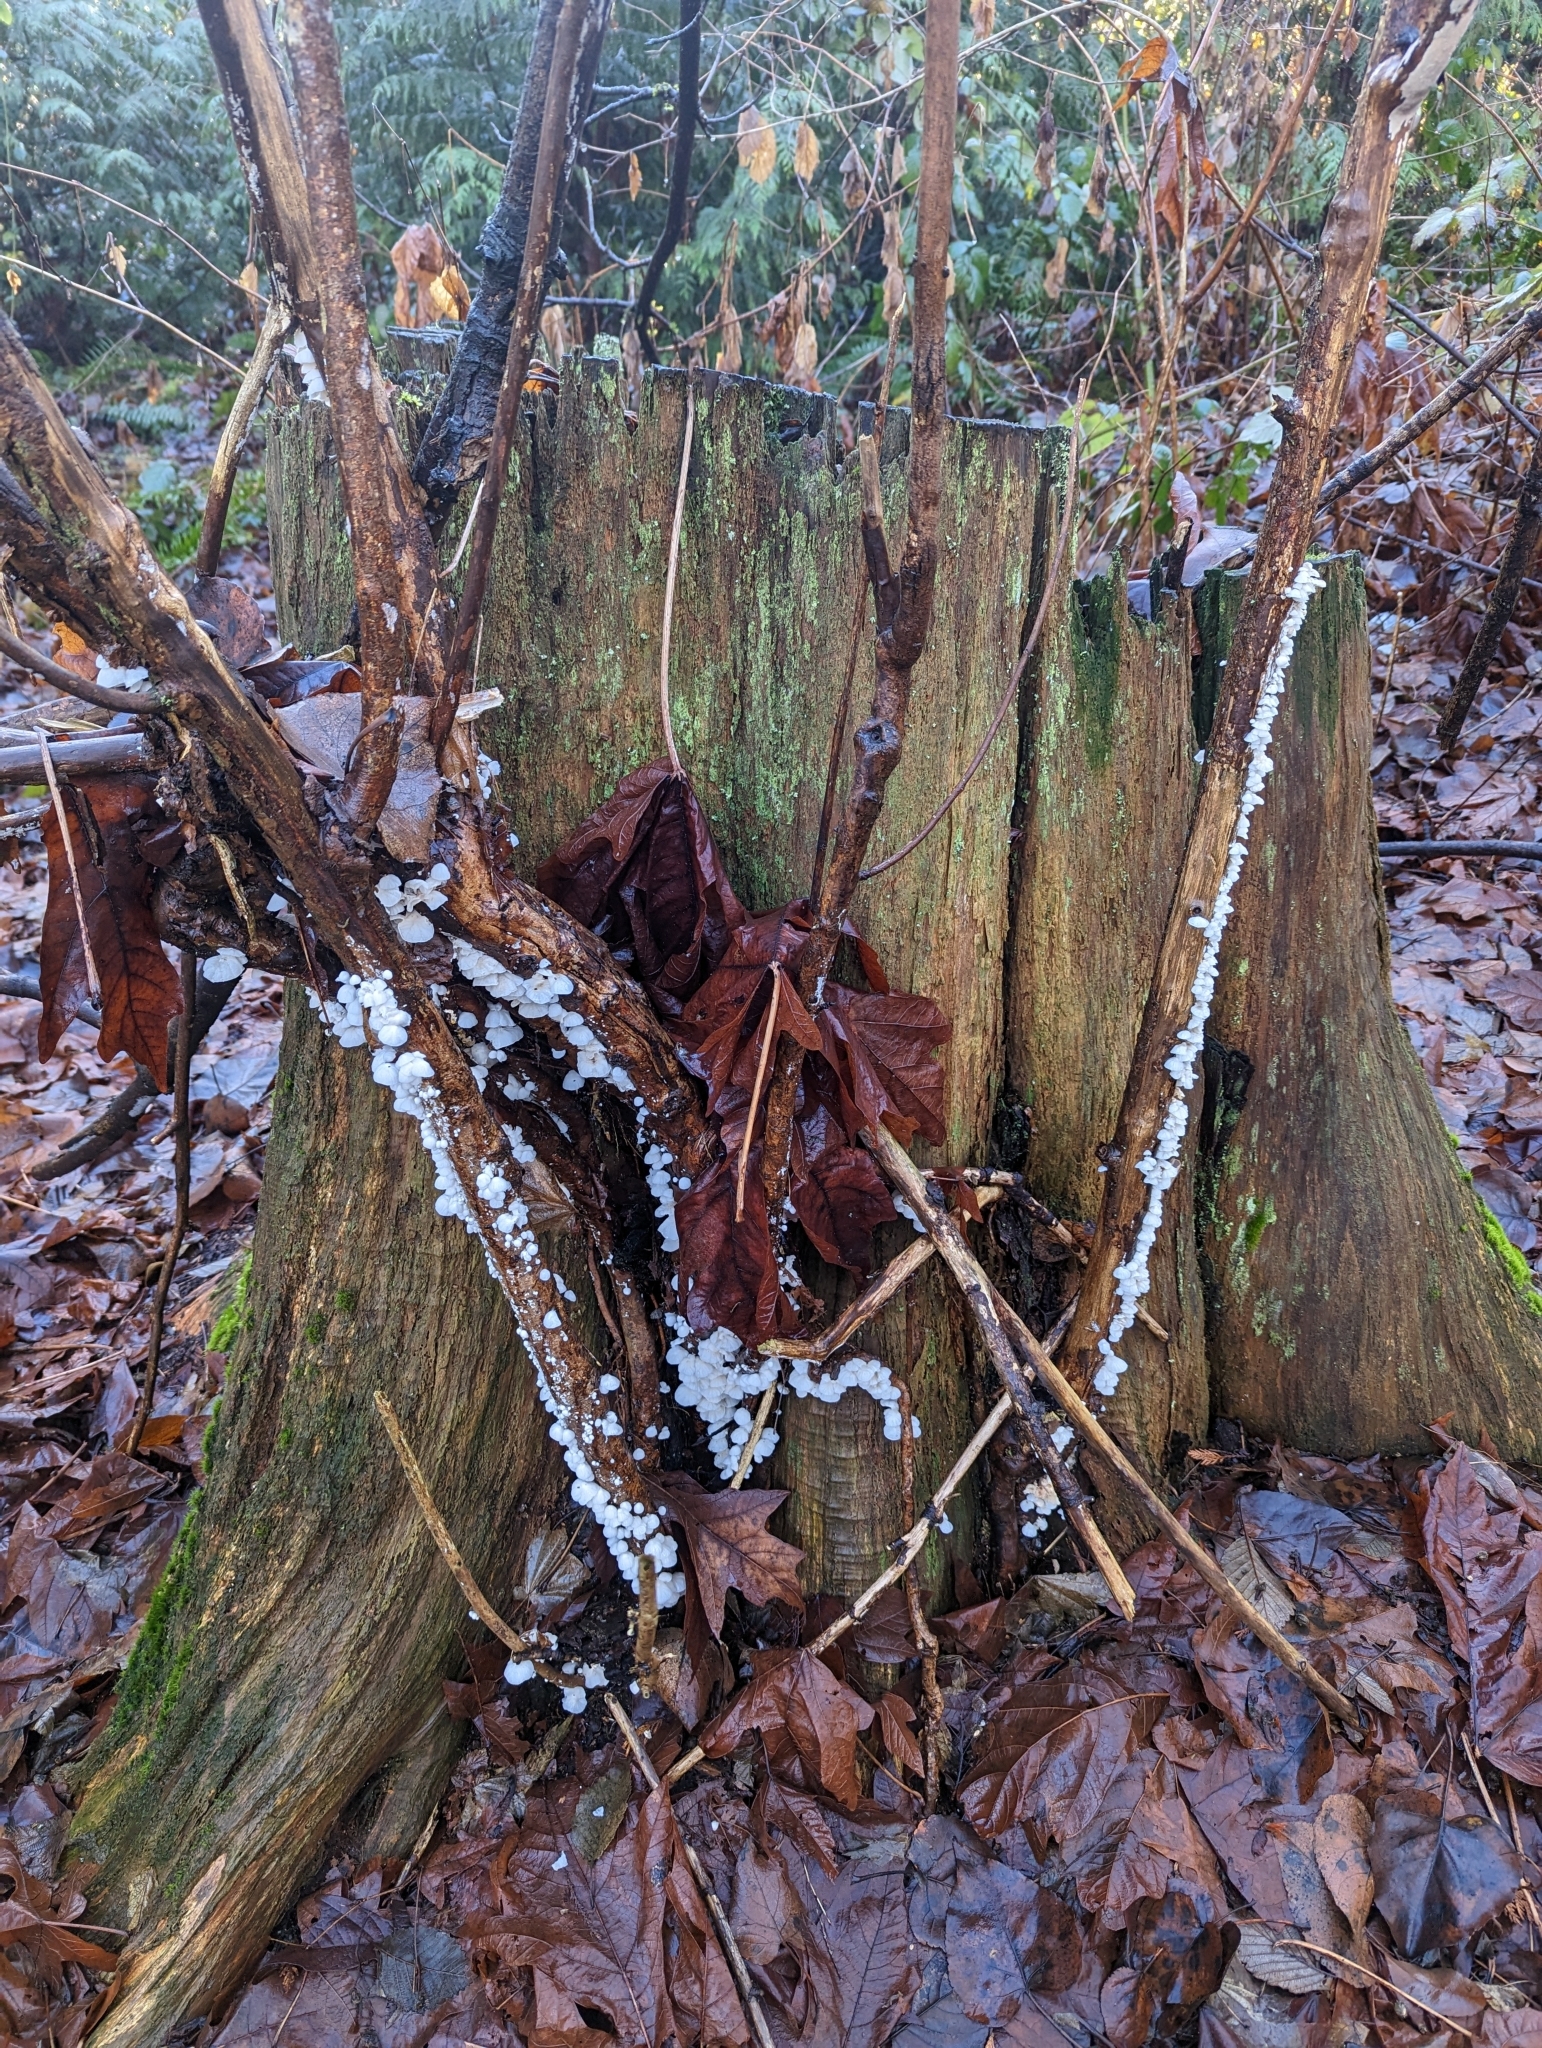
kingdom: Fungi
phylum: Basidiomycota
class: Agaricomycetes
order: Agaricales
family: Omphalotaceae
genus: Marasmiellus
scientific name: Marasmiellus candidus
